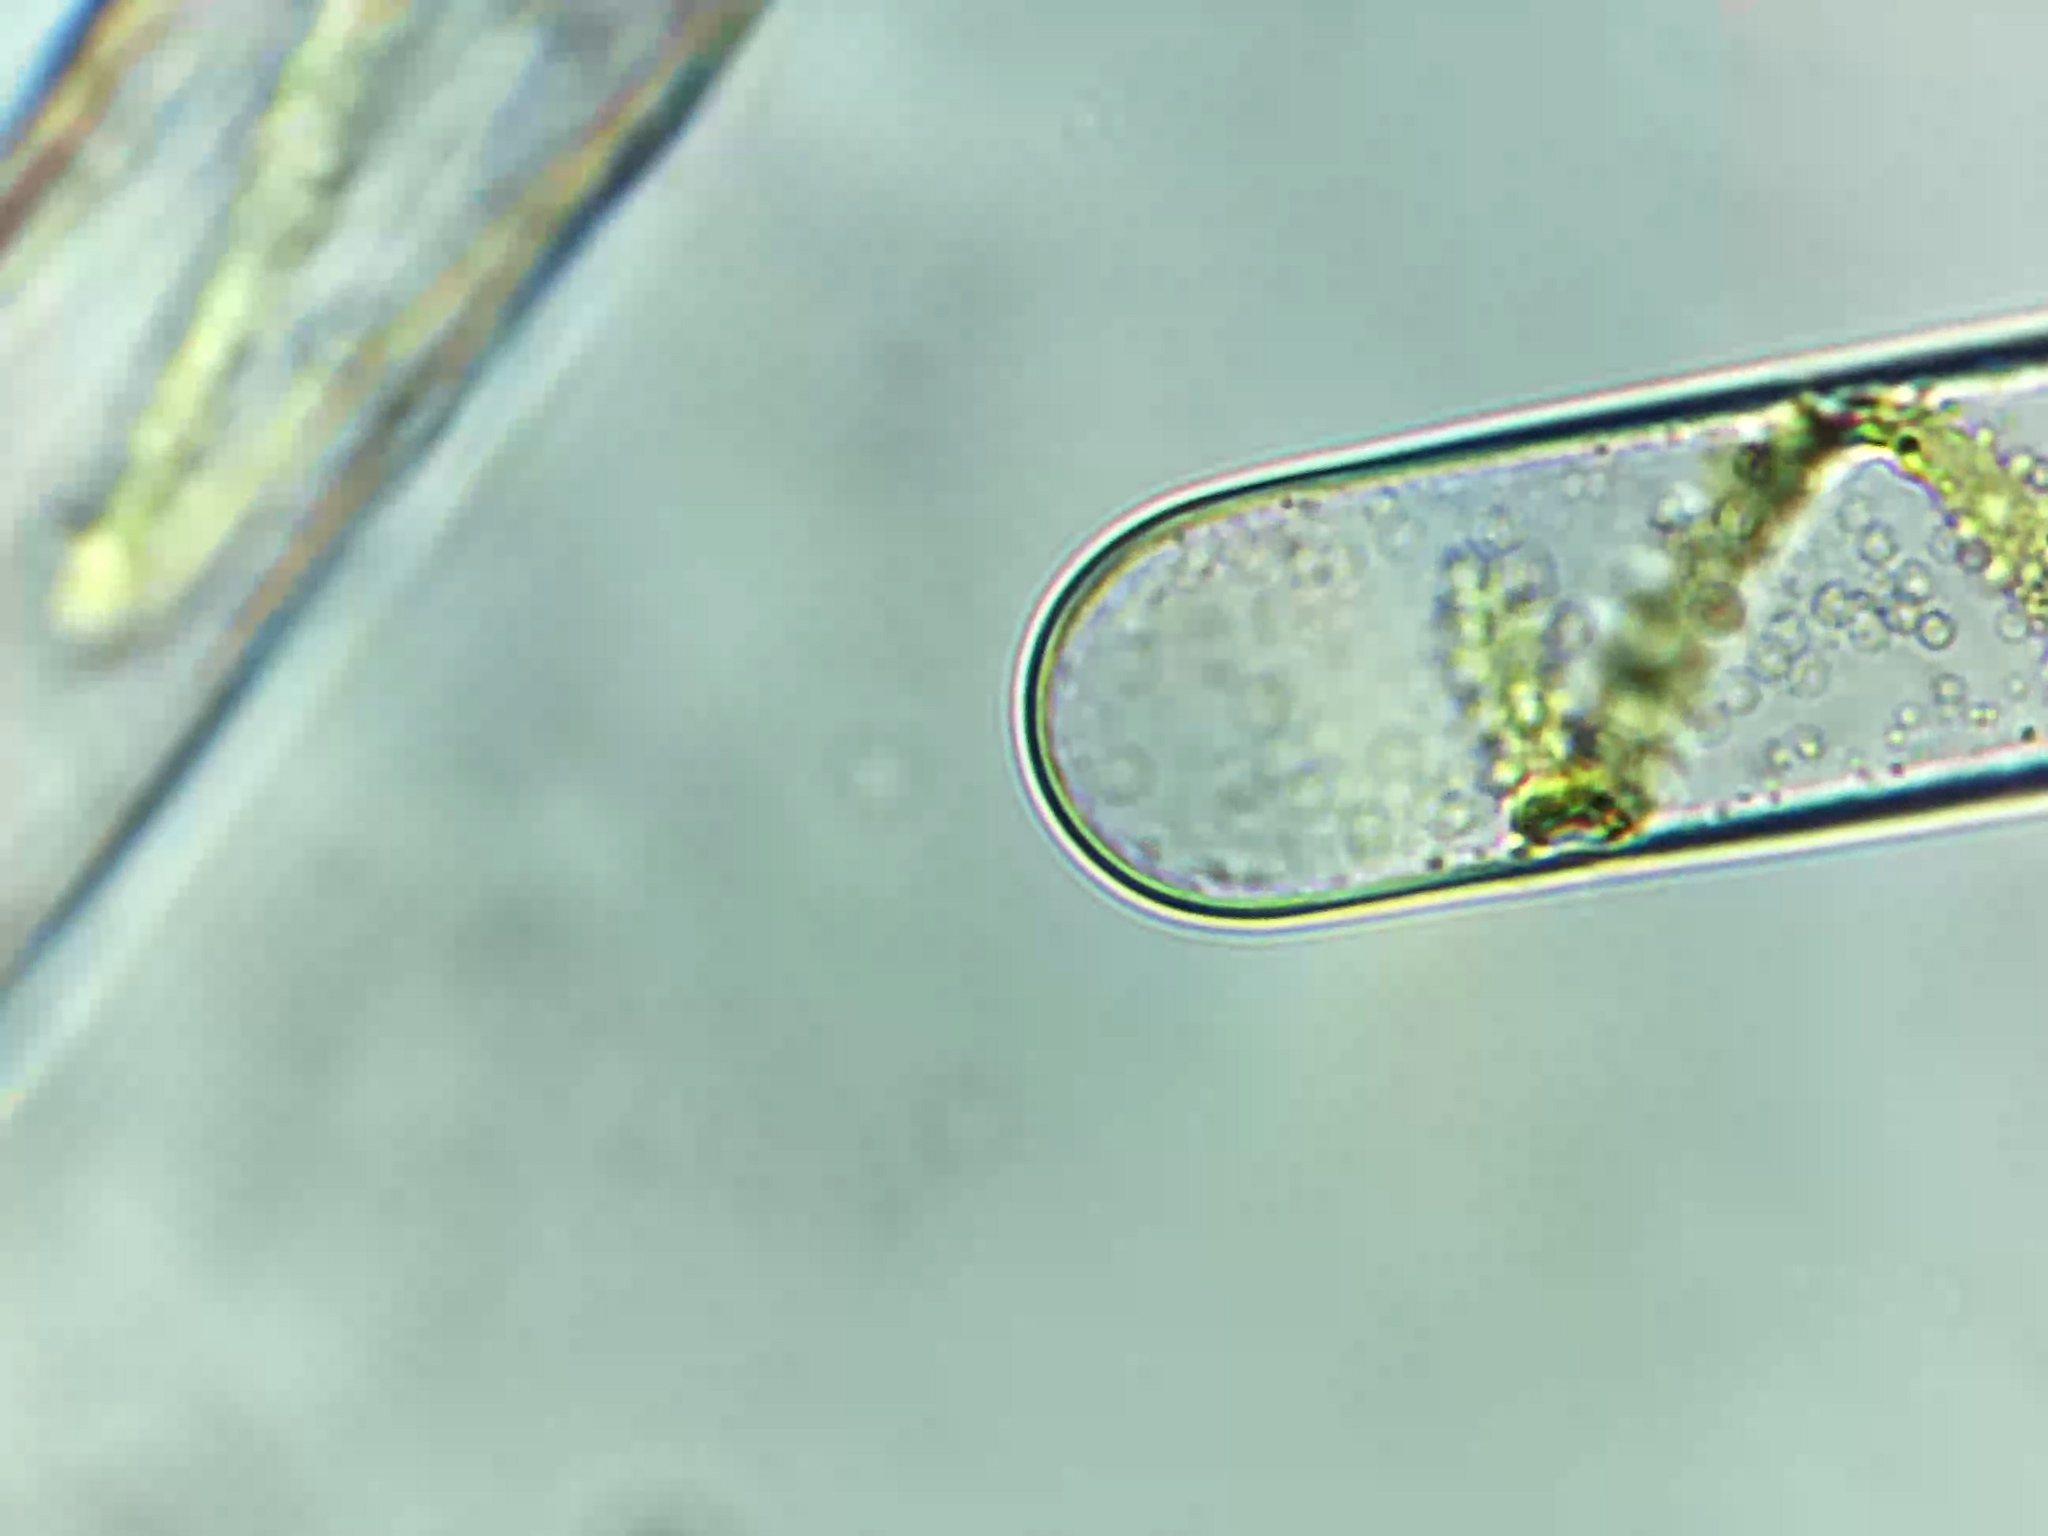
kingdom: Plantae
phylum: Charophyta
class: Zygnematophyceae
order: Zygnematales
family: Zygnemataceae
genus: Spirogyra
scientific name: Spirogyra
